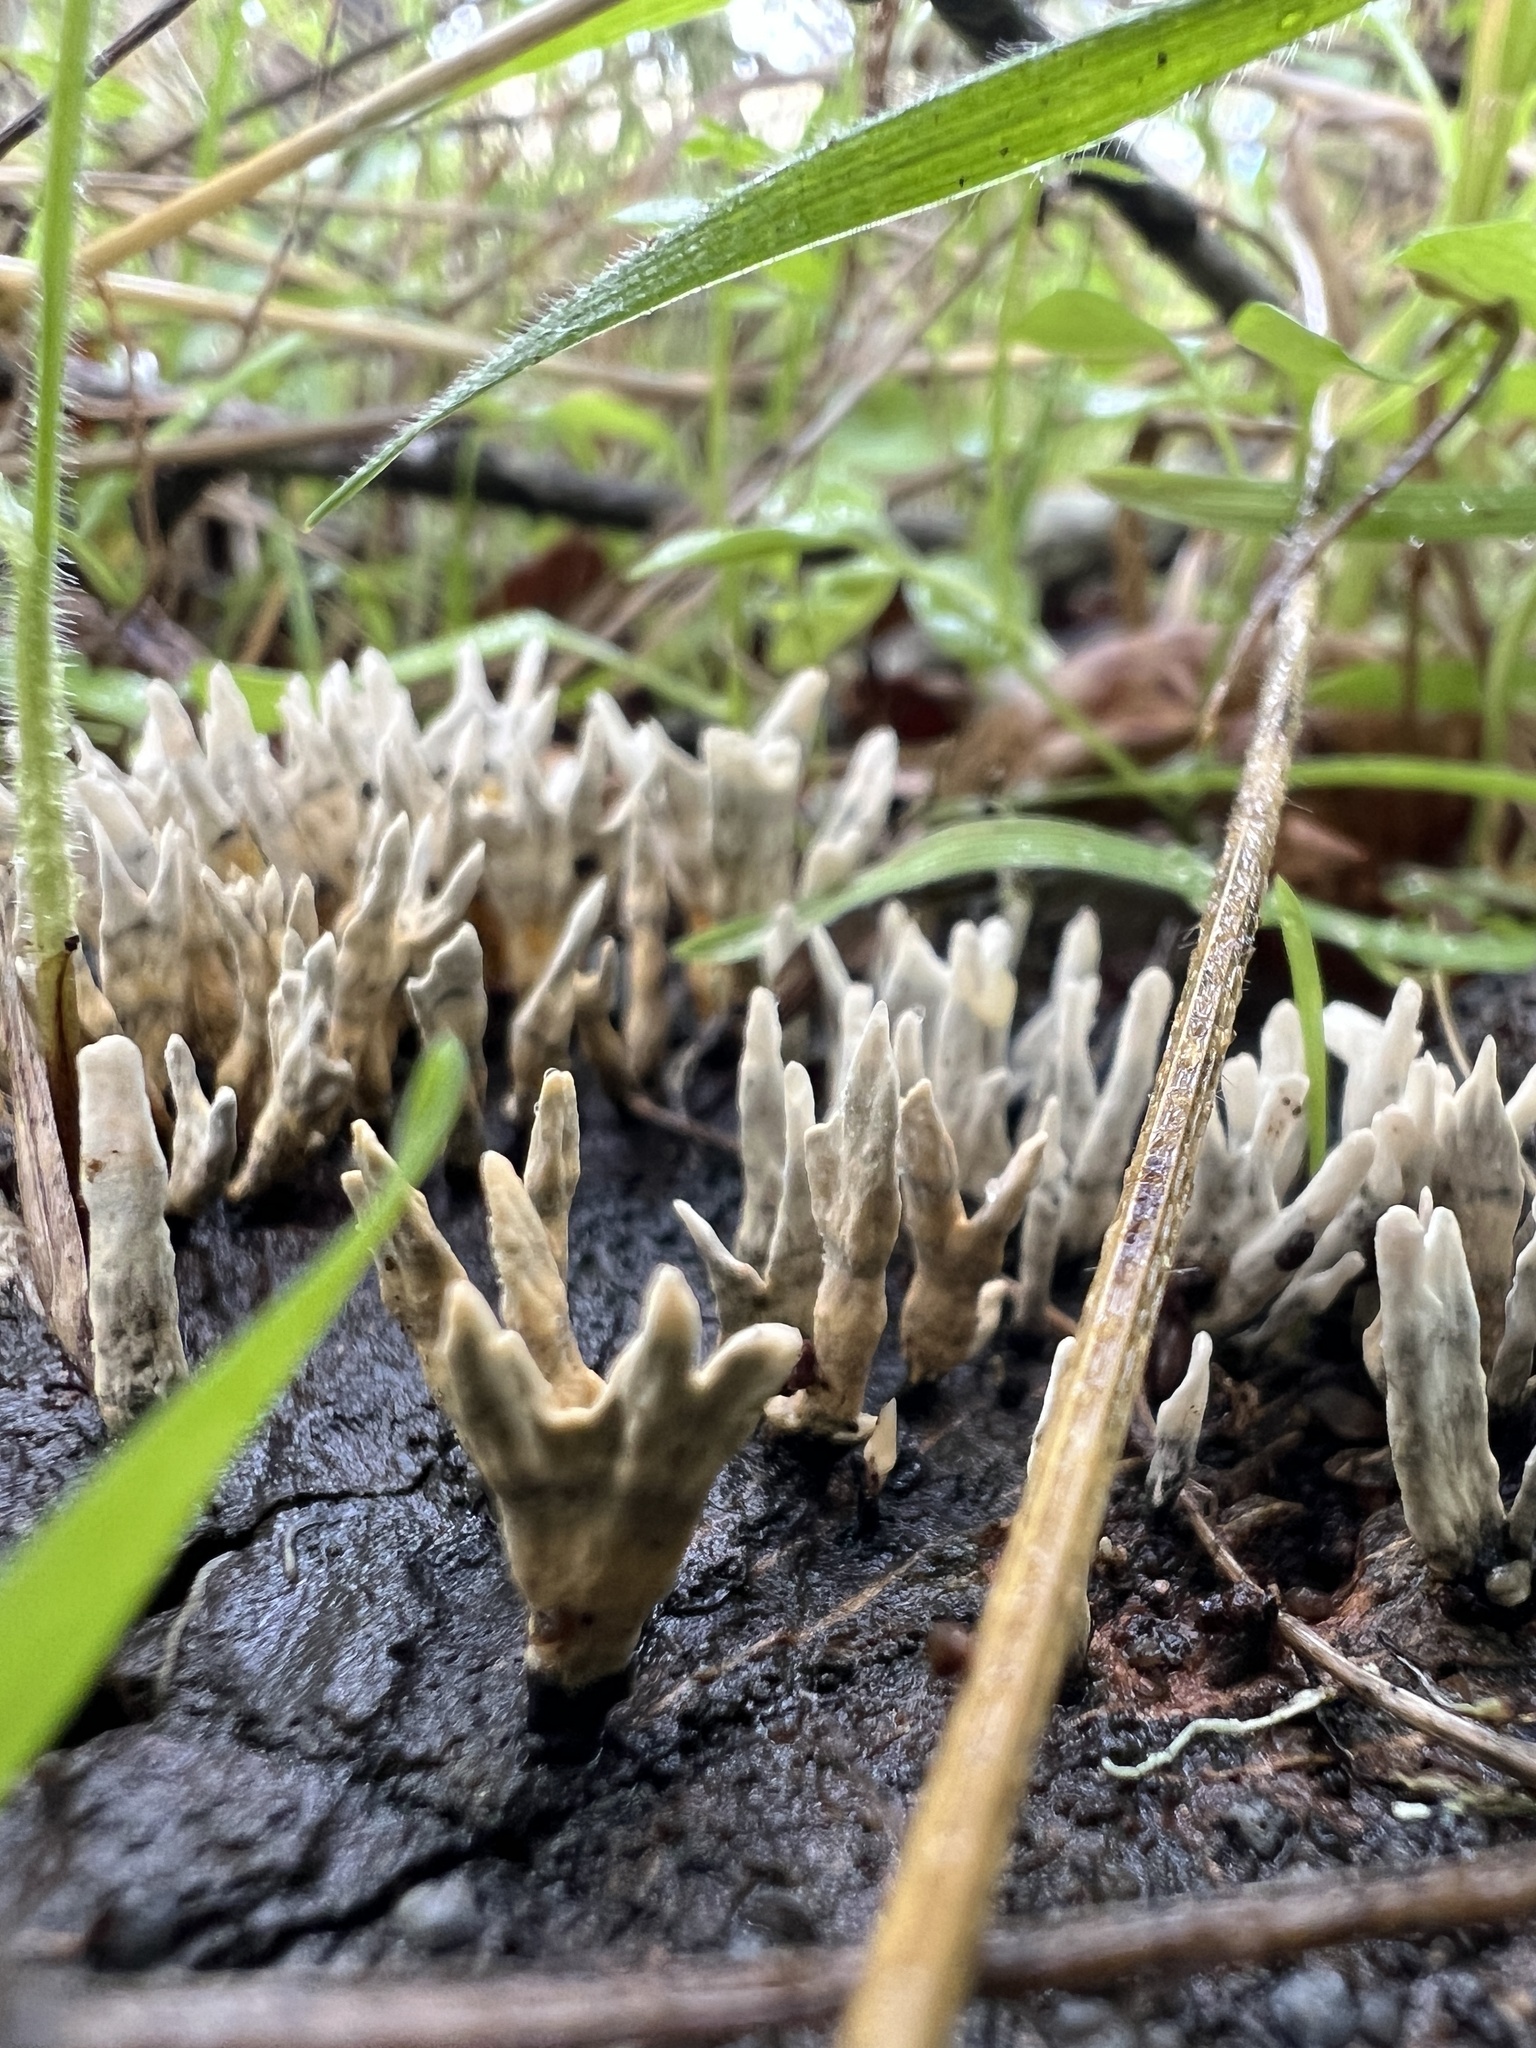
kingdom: Fungi
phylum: Ascomycota
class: Sordariomycetes
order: Xylariales
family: Xylariaceae
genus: Xylaria
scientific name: Xylaria hypoxylon
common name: Candle-snuff fungus
